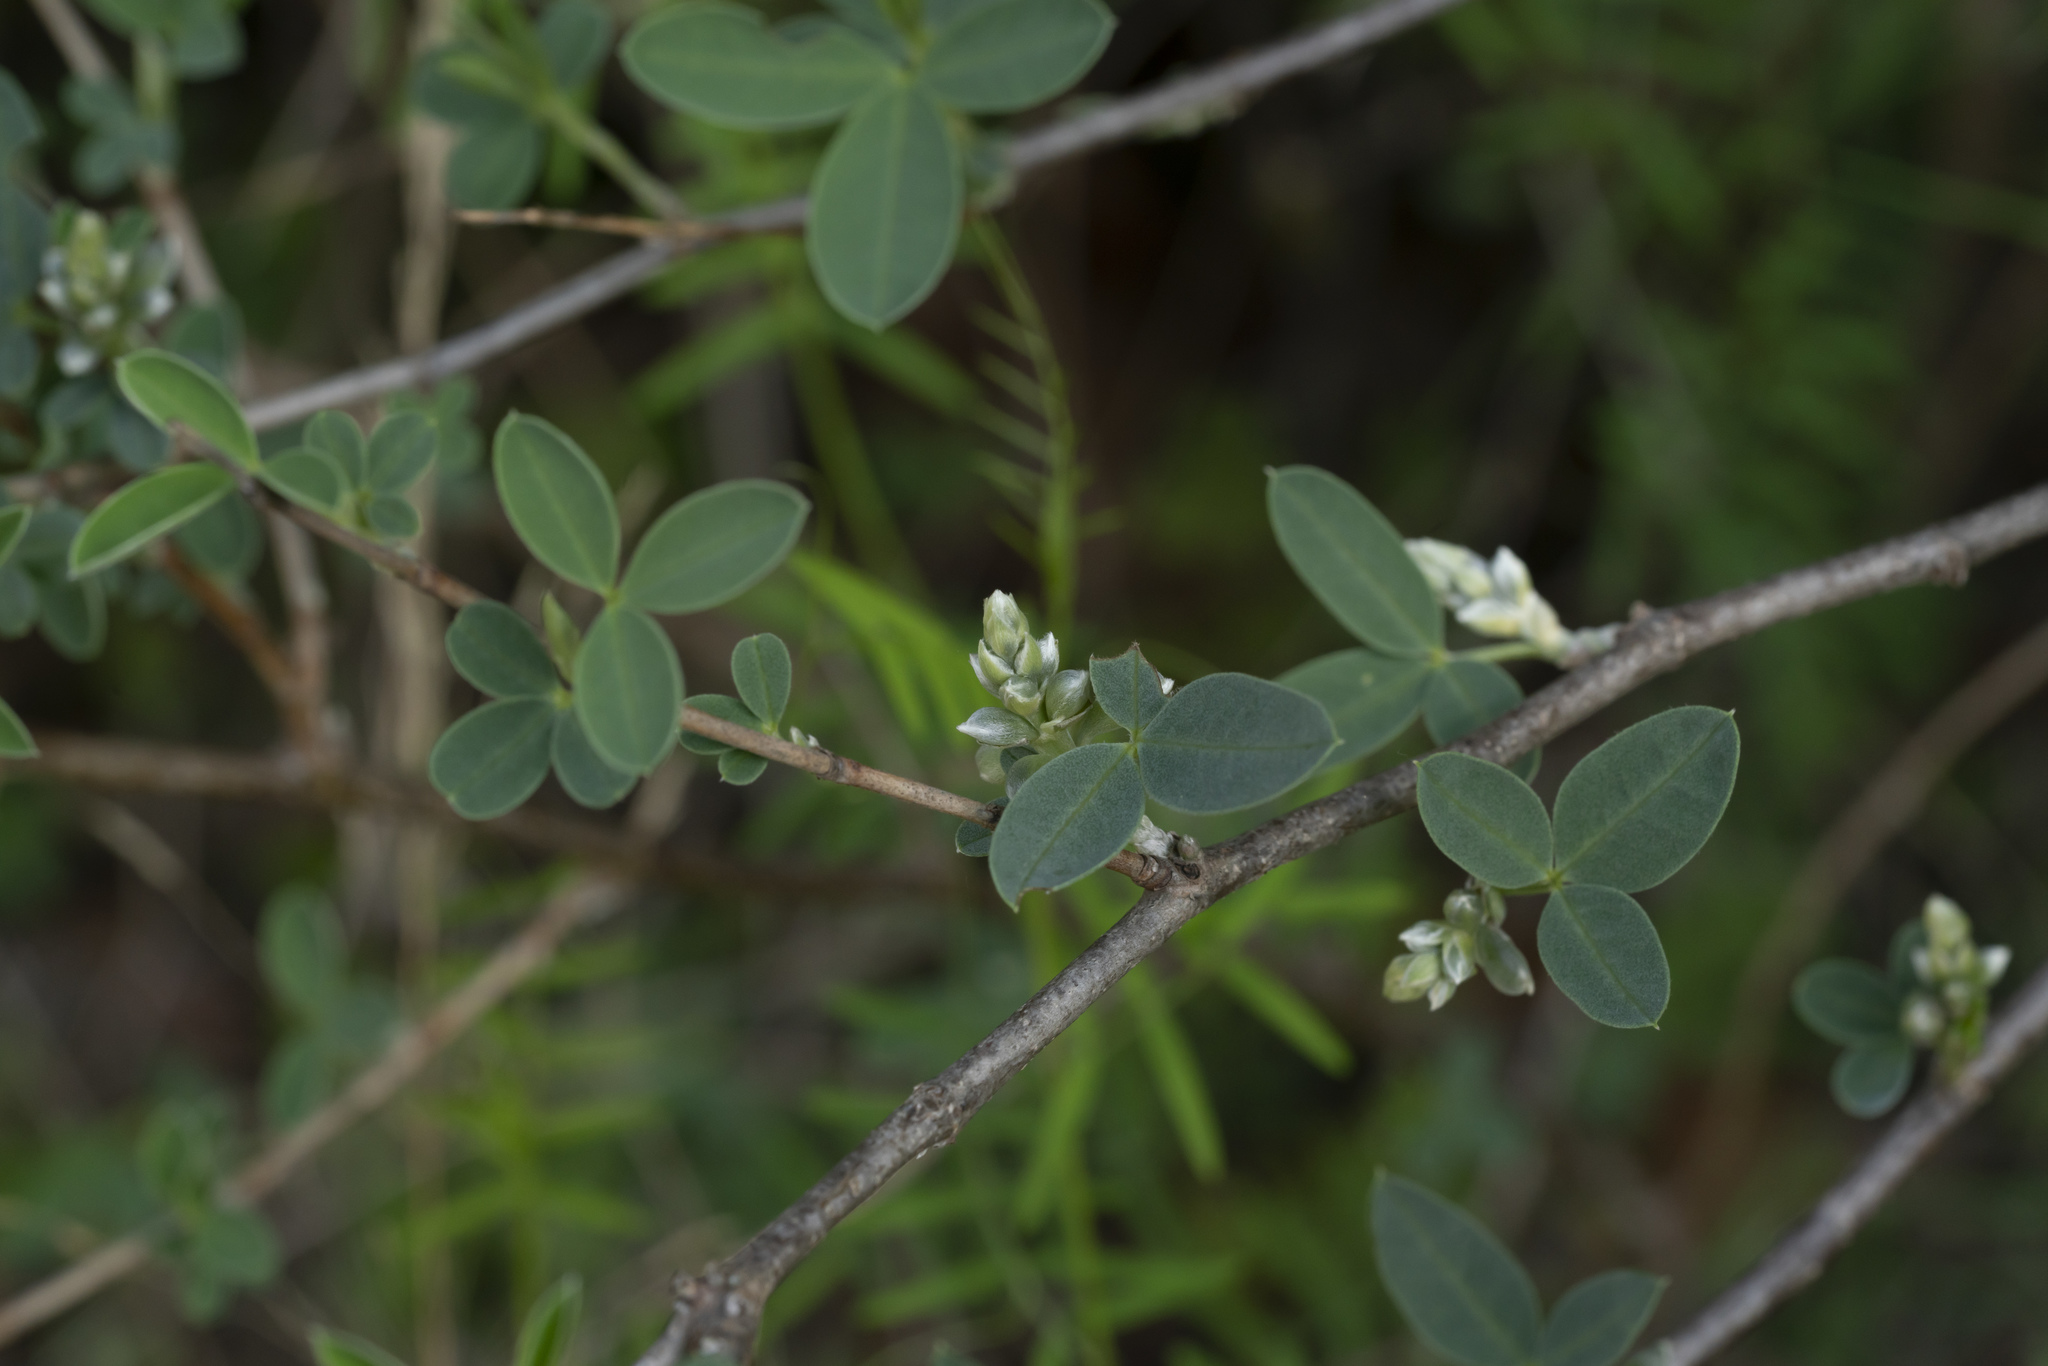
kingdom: Plantae
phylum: Tracheophyta
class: Magnoliopsida
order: Fabales
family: Fabaceae
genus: Anagyris
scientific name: Anagyris foetida
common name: Stinking bean trefoil
